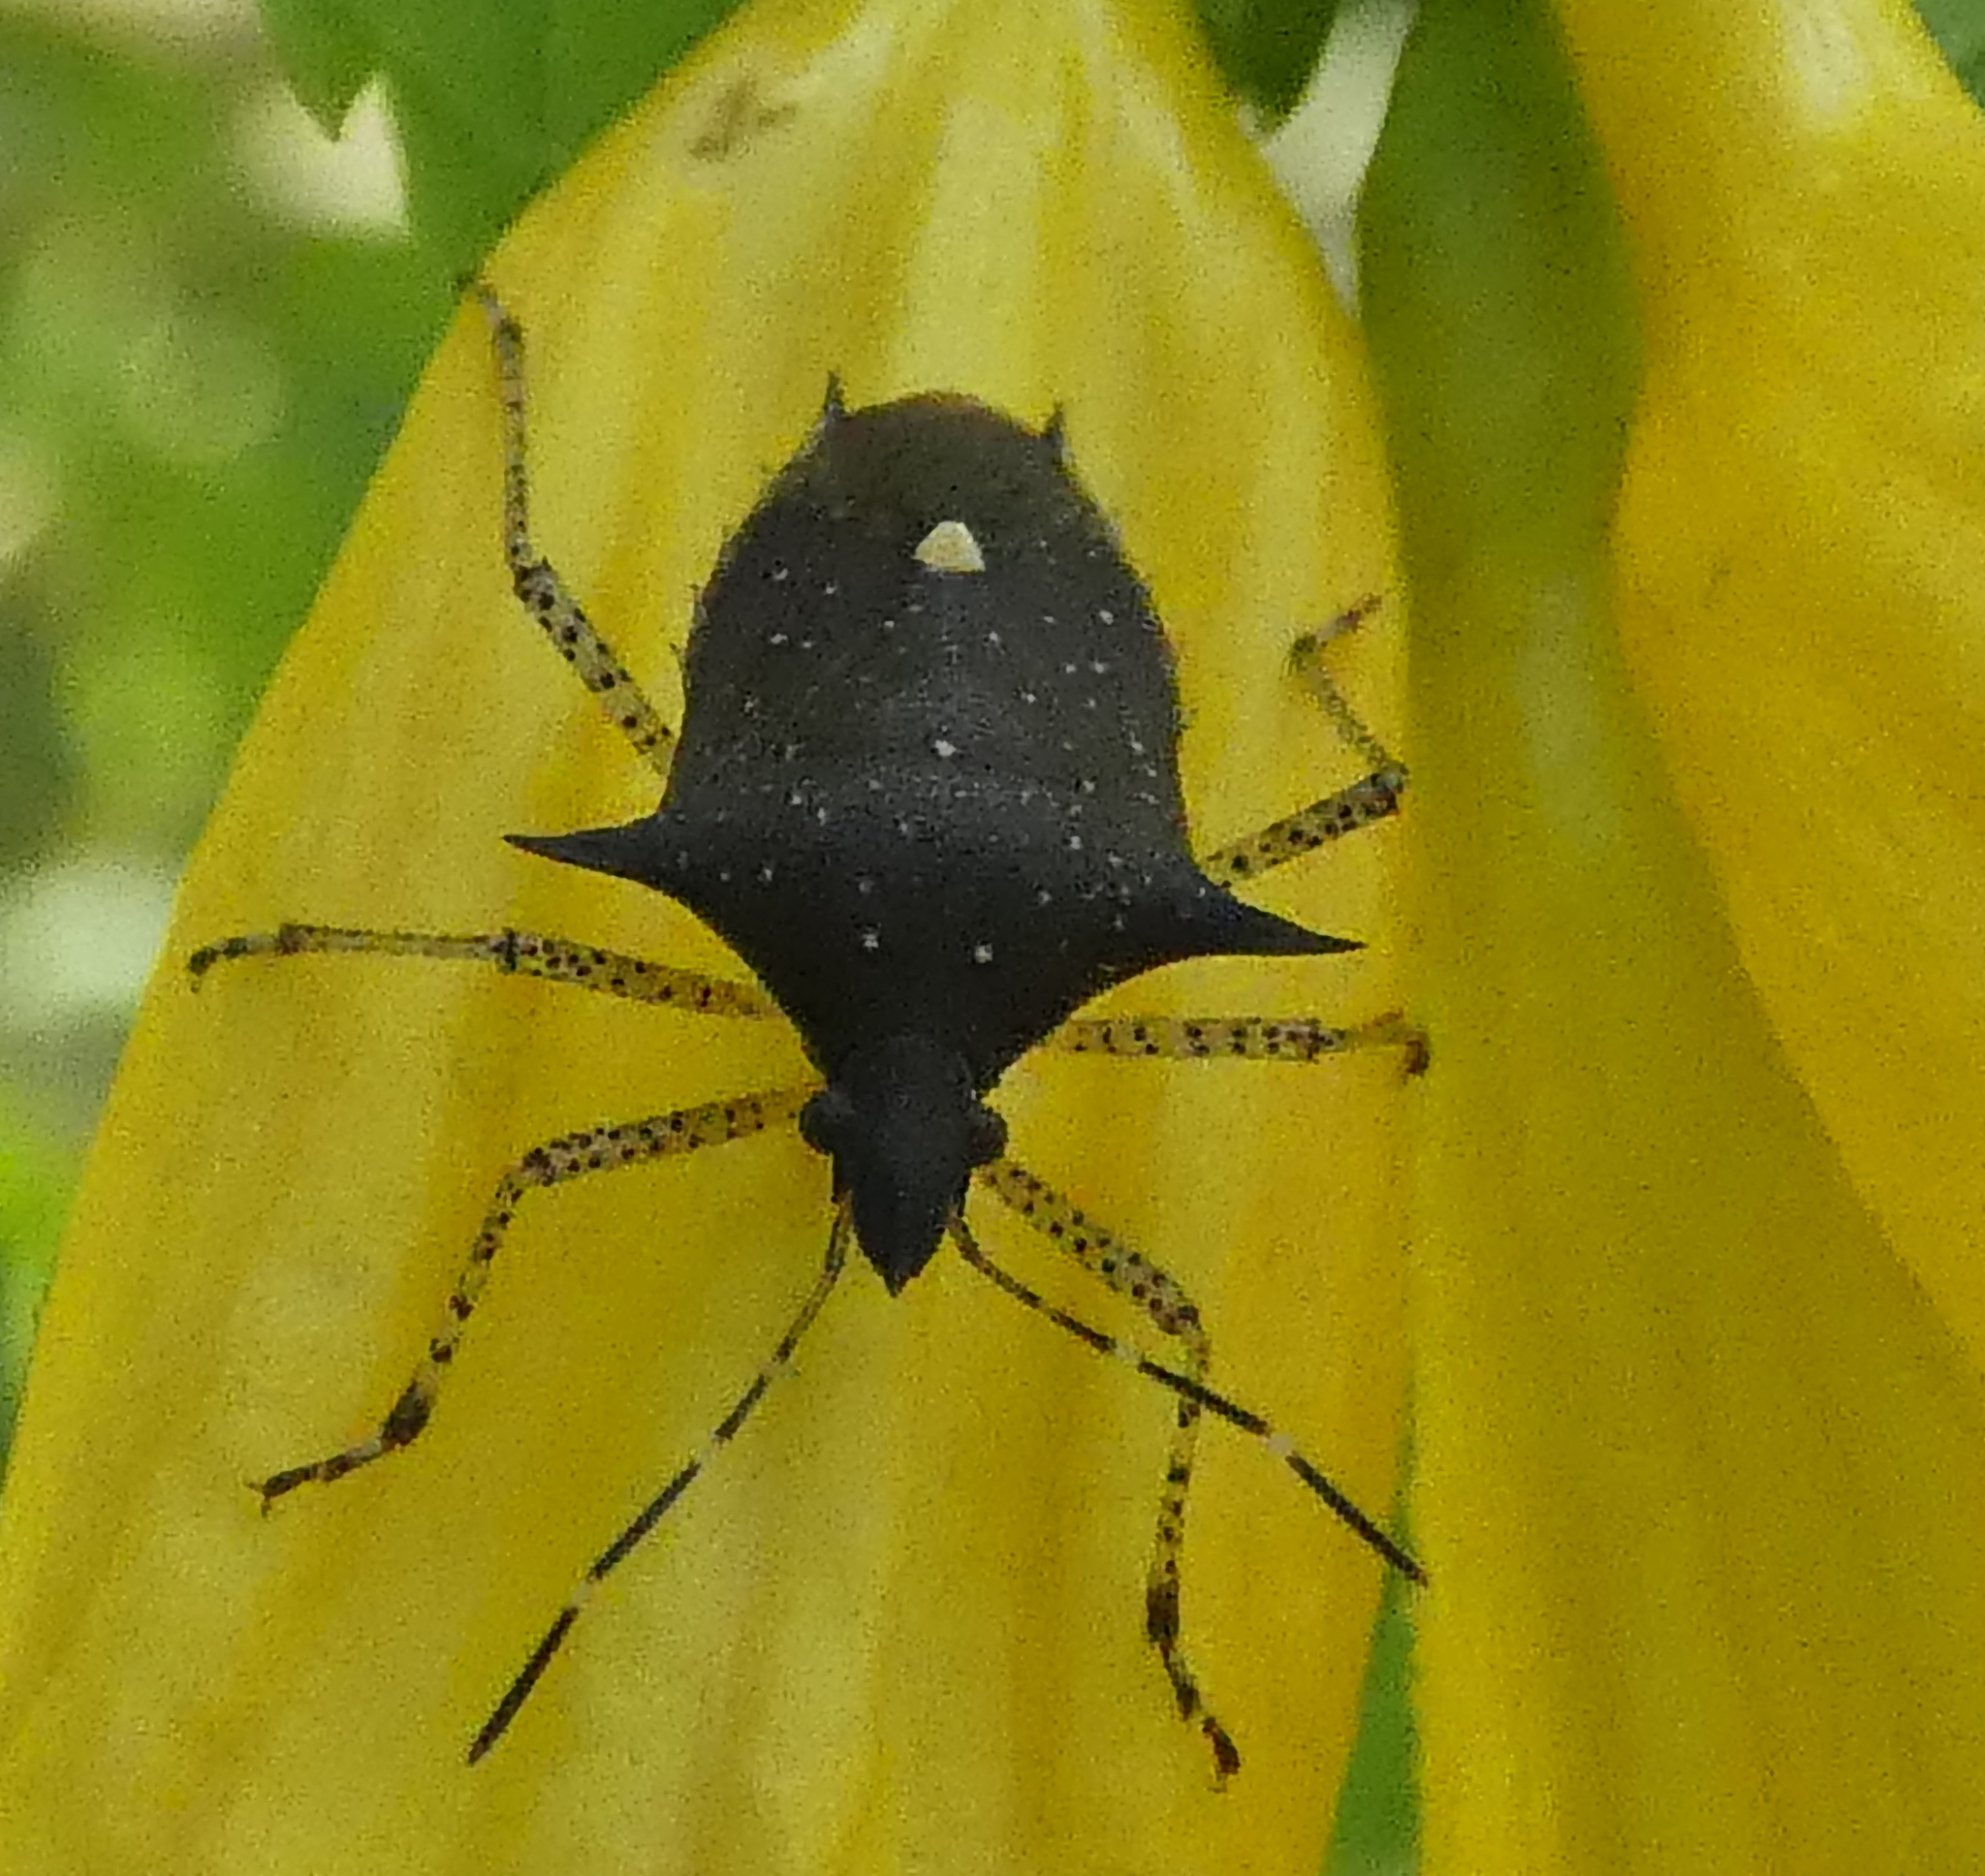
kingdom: Animalia
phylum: Arthropoda
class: Insecta
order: Hemiptera
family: Pentatomidae
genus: Proxys
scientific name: Proxys albopunctulatus
